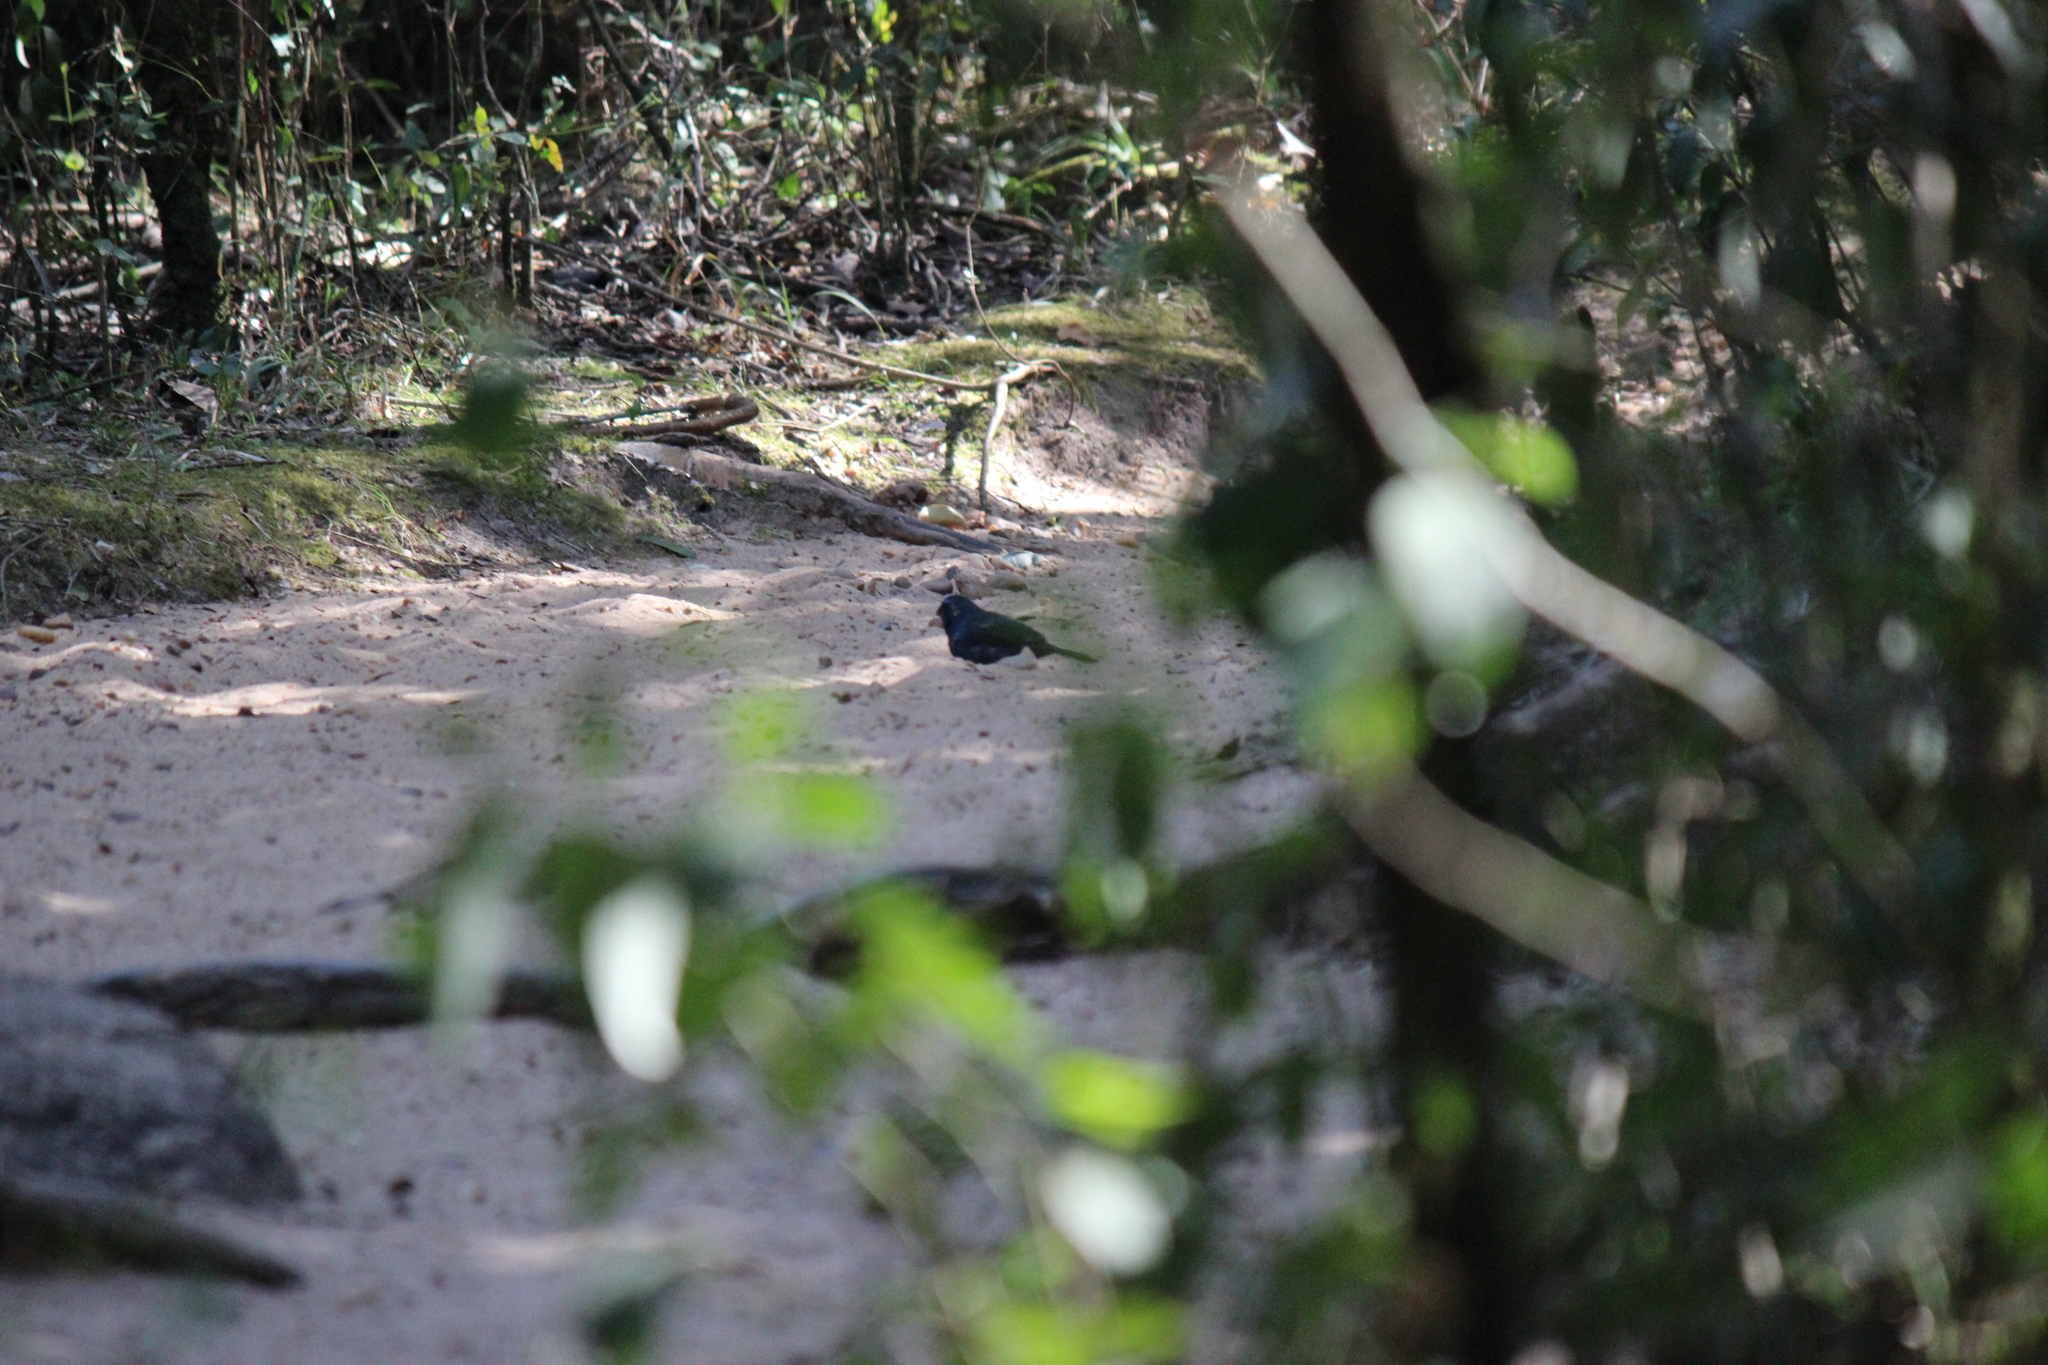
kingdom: Animalia
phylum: Chordata
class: Aves
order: Passeriformes
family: Cardinalidae
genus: Cyanoloxia
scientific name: Cyanoloxia brissonii
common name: Ultramarine grosbeak
